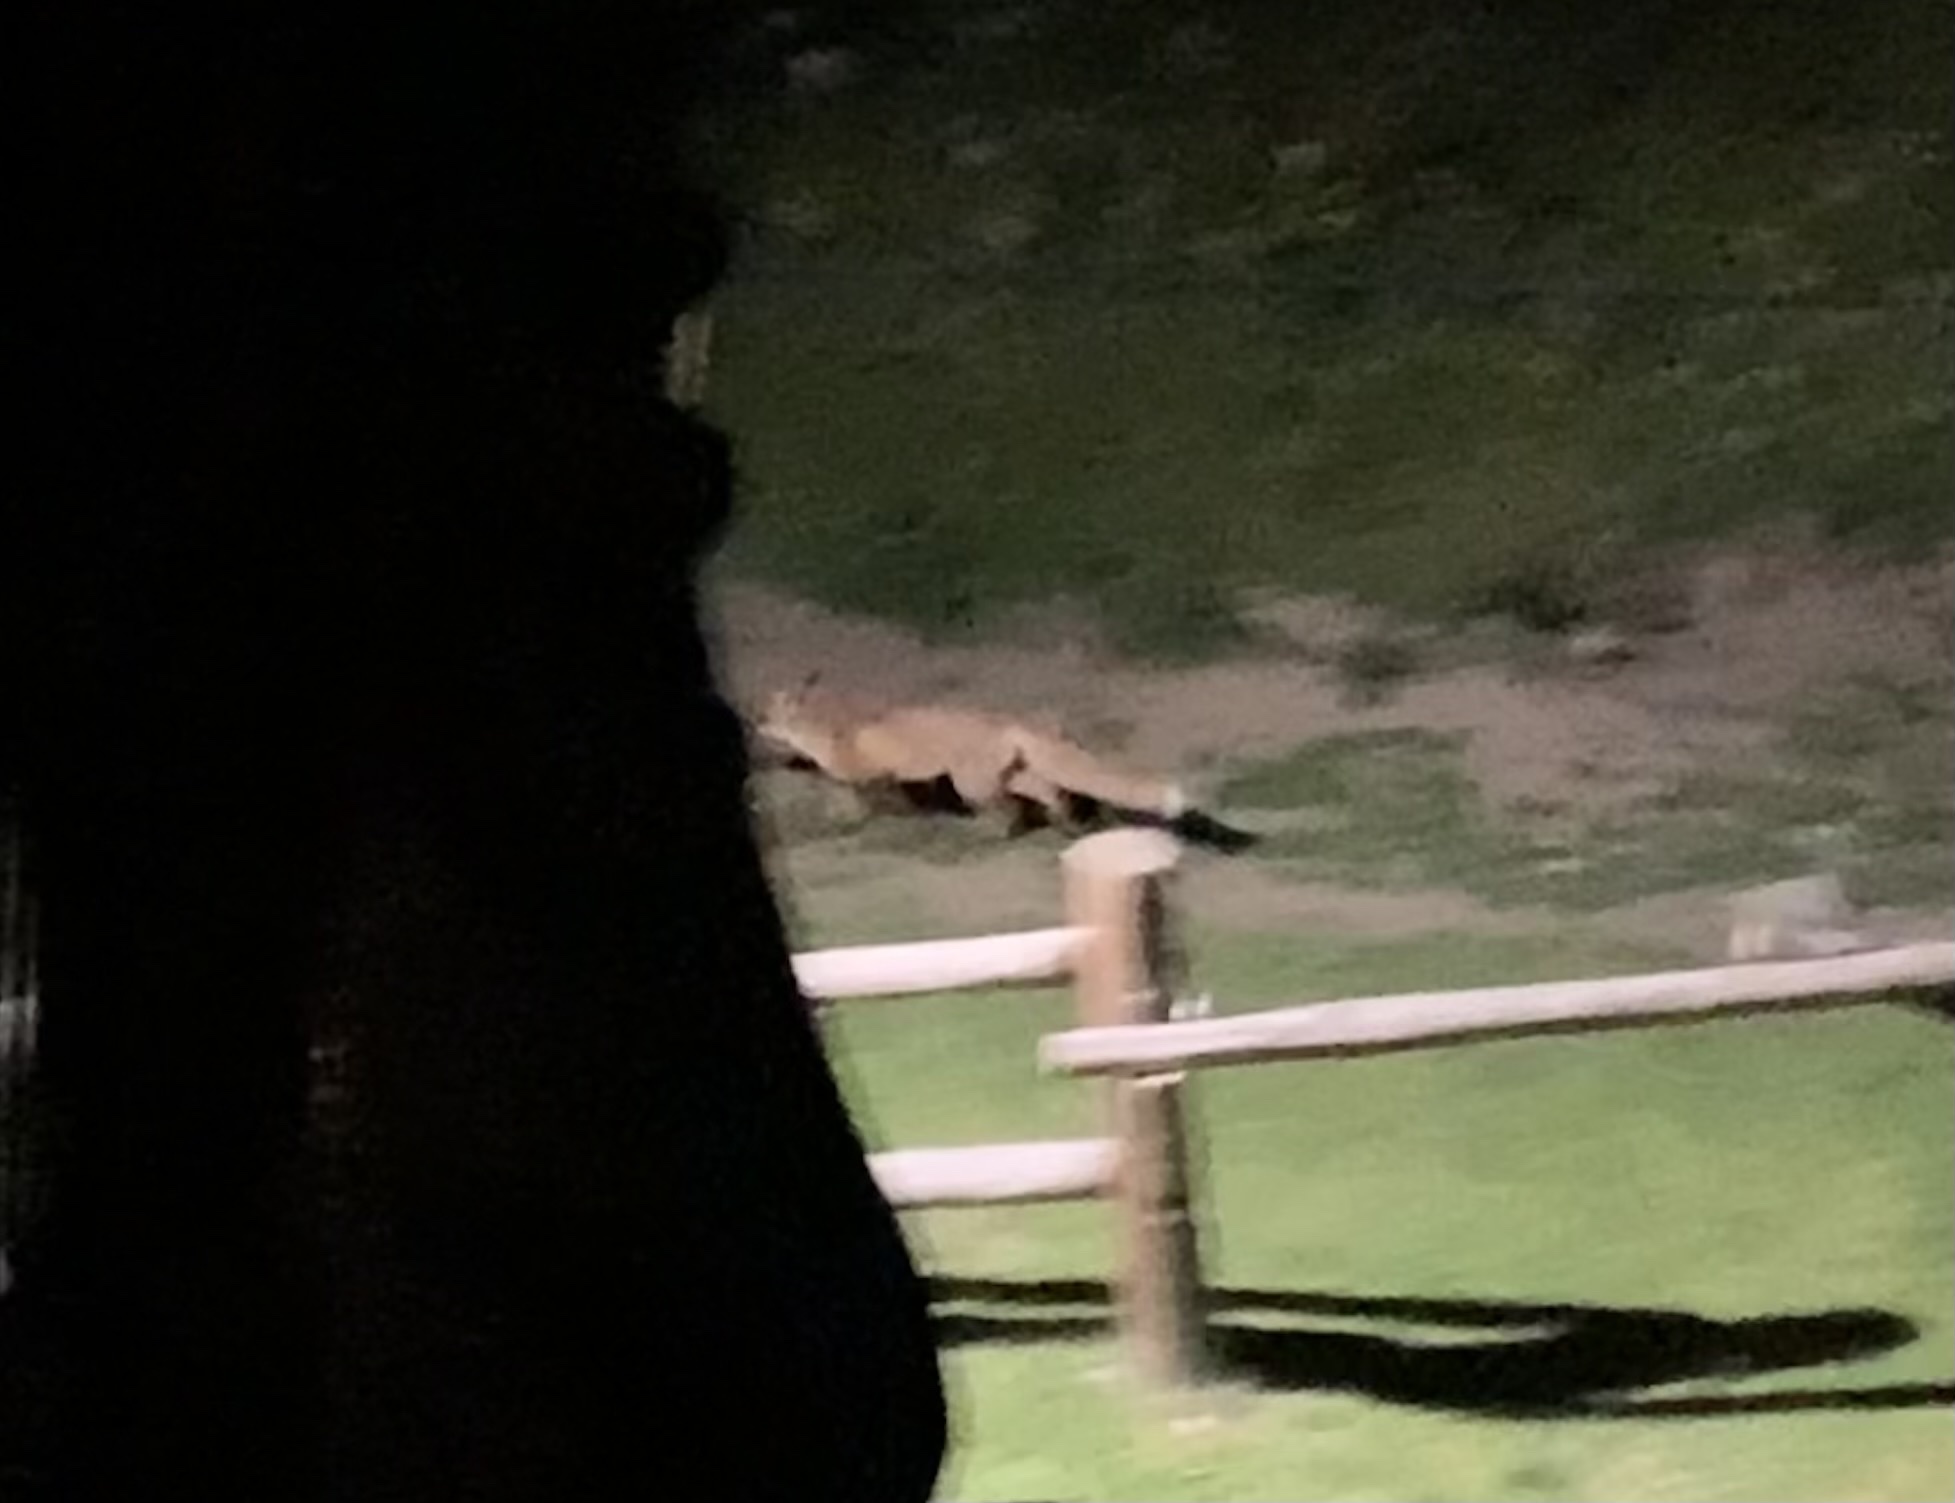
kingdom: Animalia
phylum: Chordata
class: Mammalia
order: Carnivora
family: Canidae
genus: Vulpes
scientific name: Vulpes vulpes
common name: Red fox
